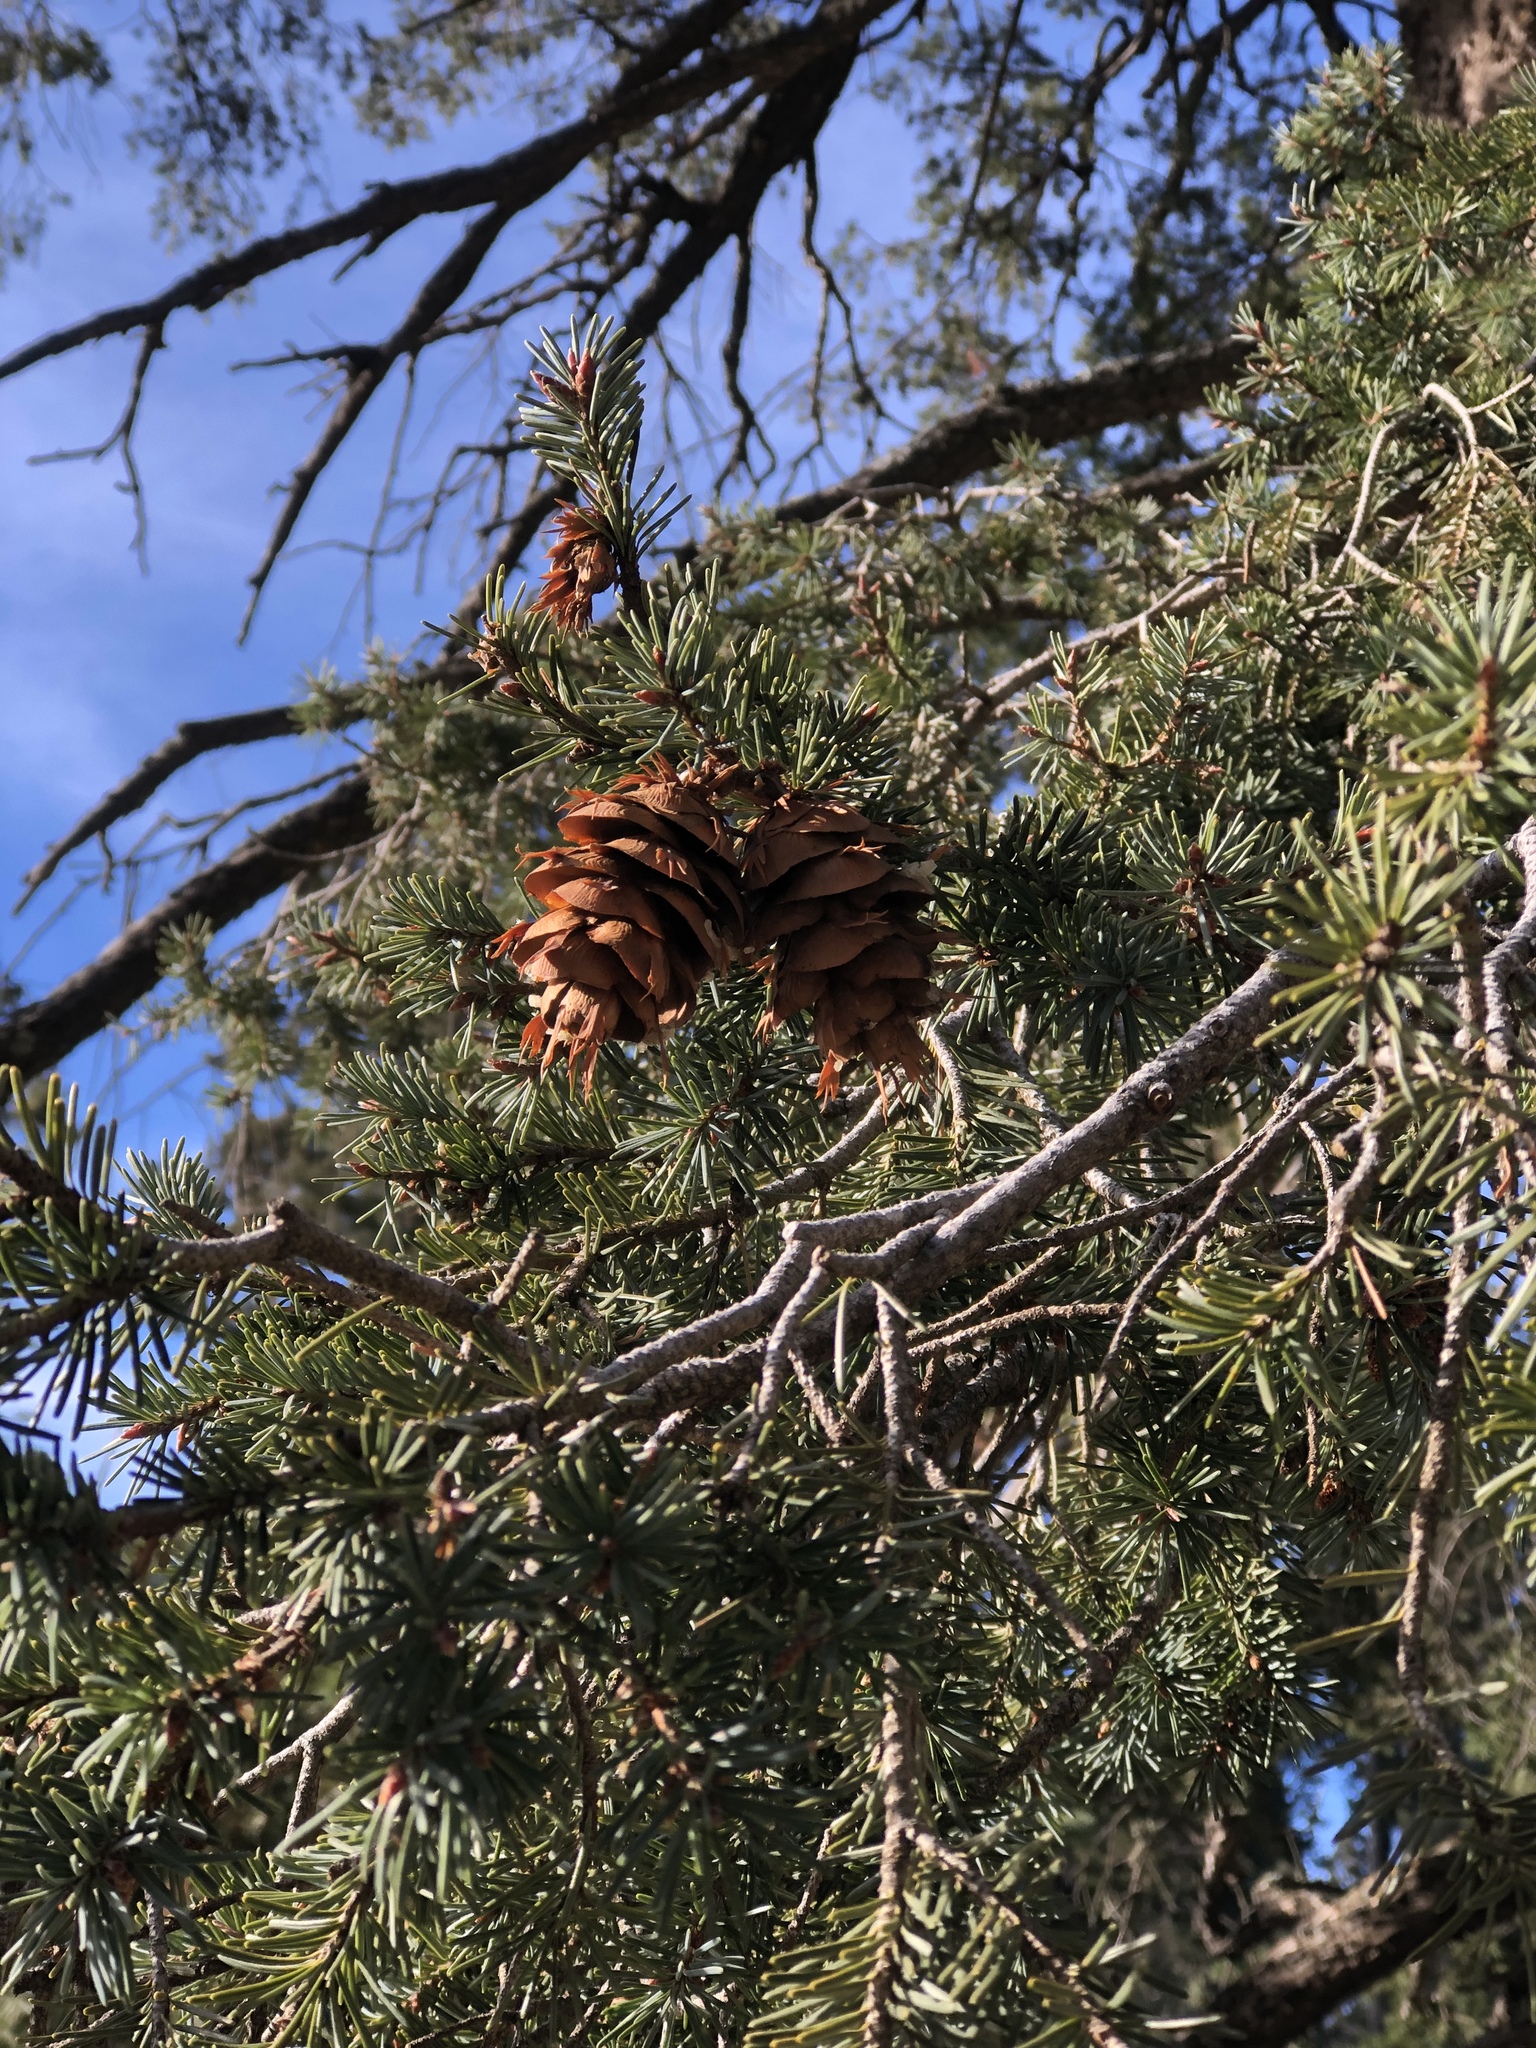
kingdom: Plantae
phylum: Tracheophyta
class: Pinopsida
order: Pinales
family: Pinaceae
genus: Pseudotsuga
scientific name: Pseudotsuga menziesii
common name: Douglas fir
